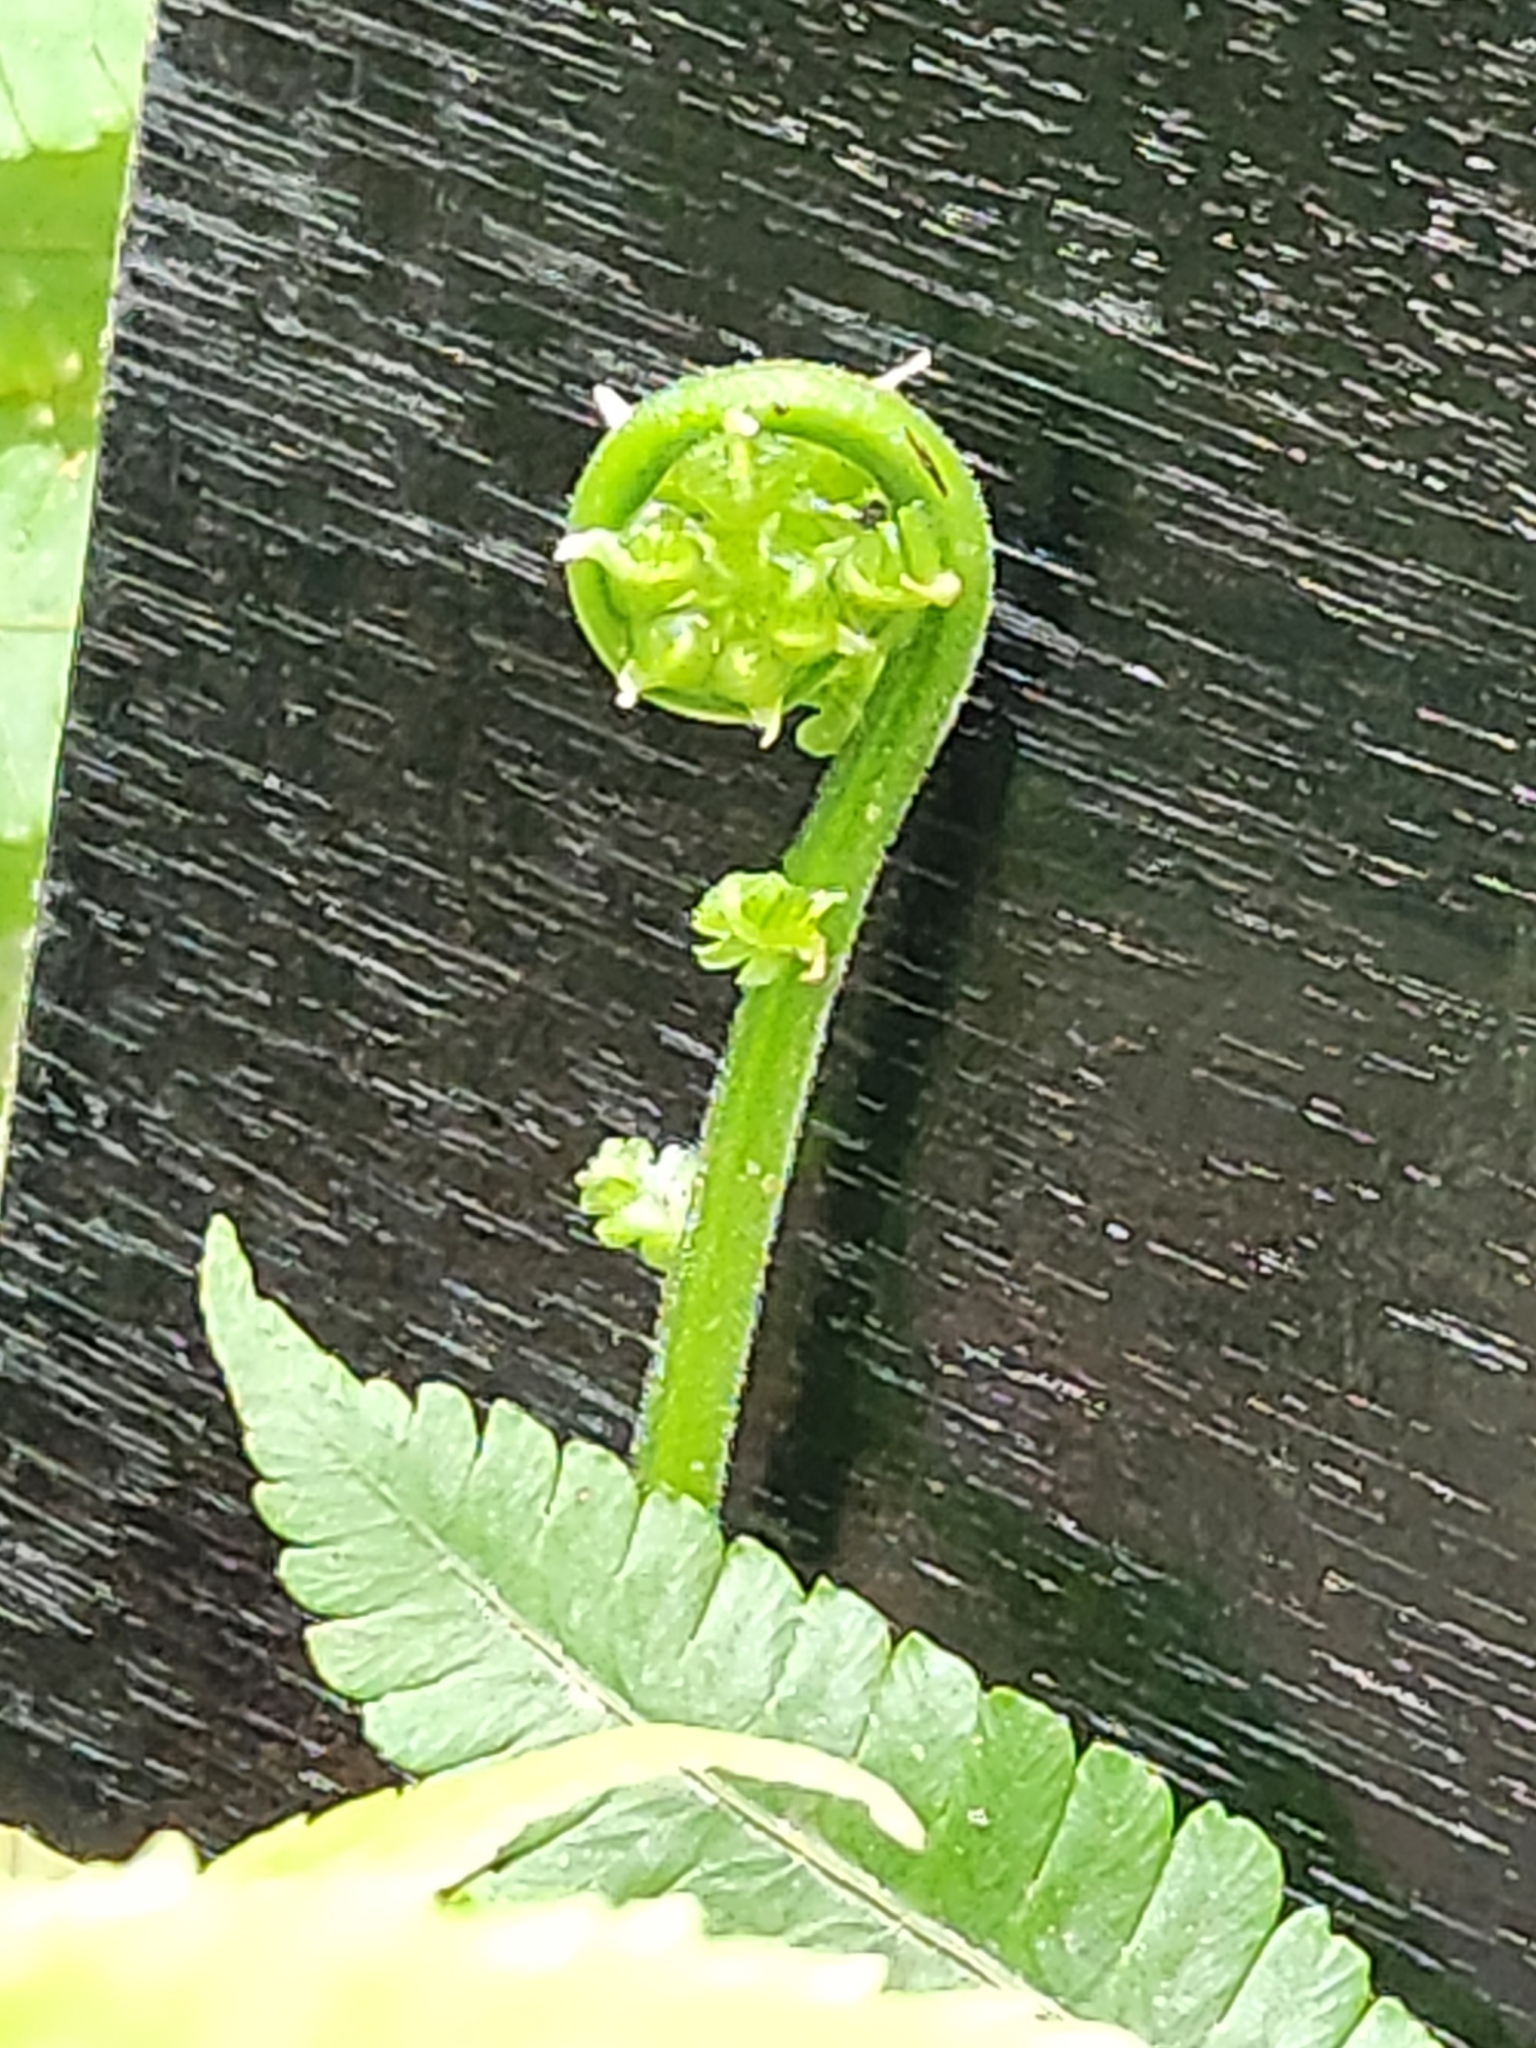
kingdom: Plantae
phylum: Tracheophyta
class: Polypodiopsida
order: Polypodiales
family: Thelypteridaceae
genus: Christella
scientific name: Christella dentata
